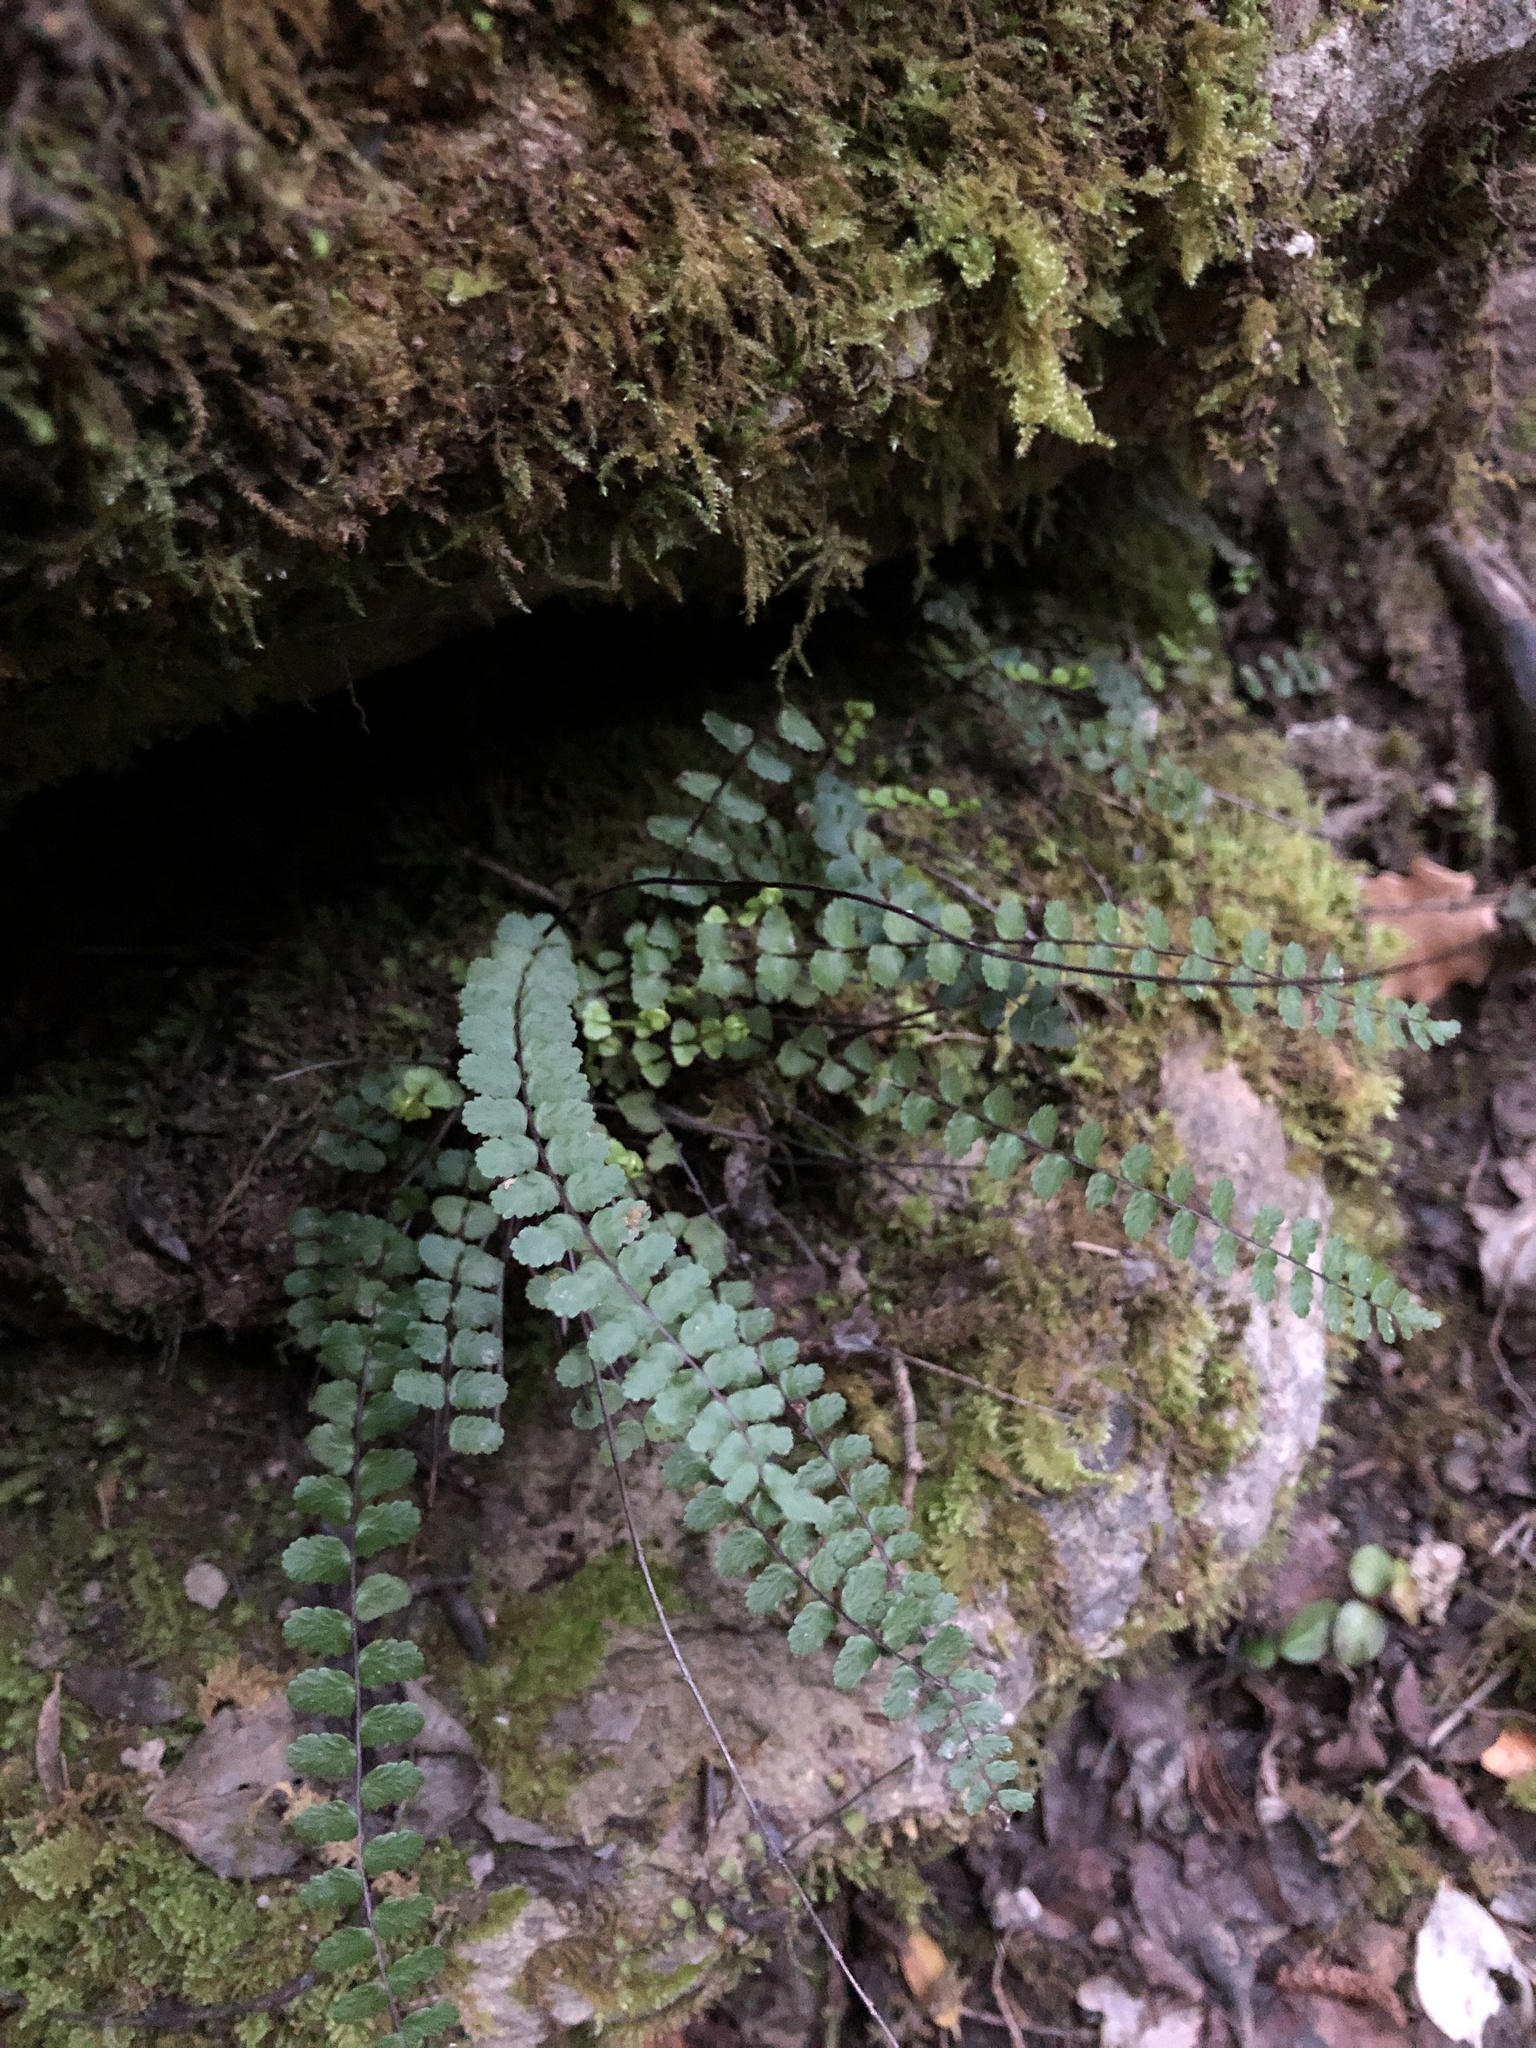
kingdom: Plantae
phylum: Tracheophyta
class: Polypodiopsida
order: Polypodiales
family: Aspleniaceae
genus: Asplenium
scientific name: Asplenium trichomanes
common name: Maidenhair spleenwort
